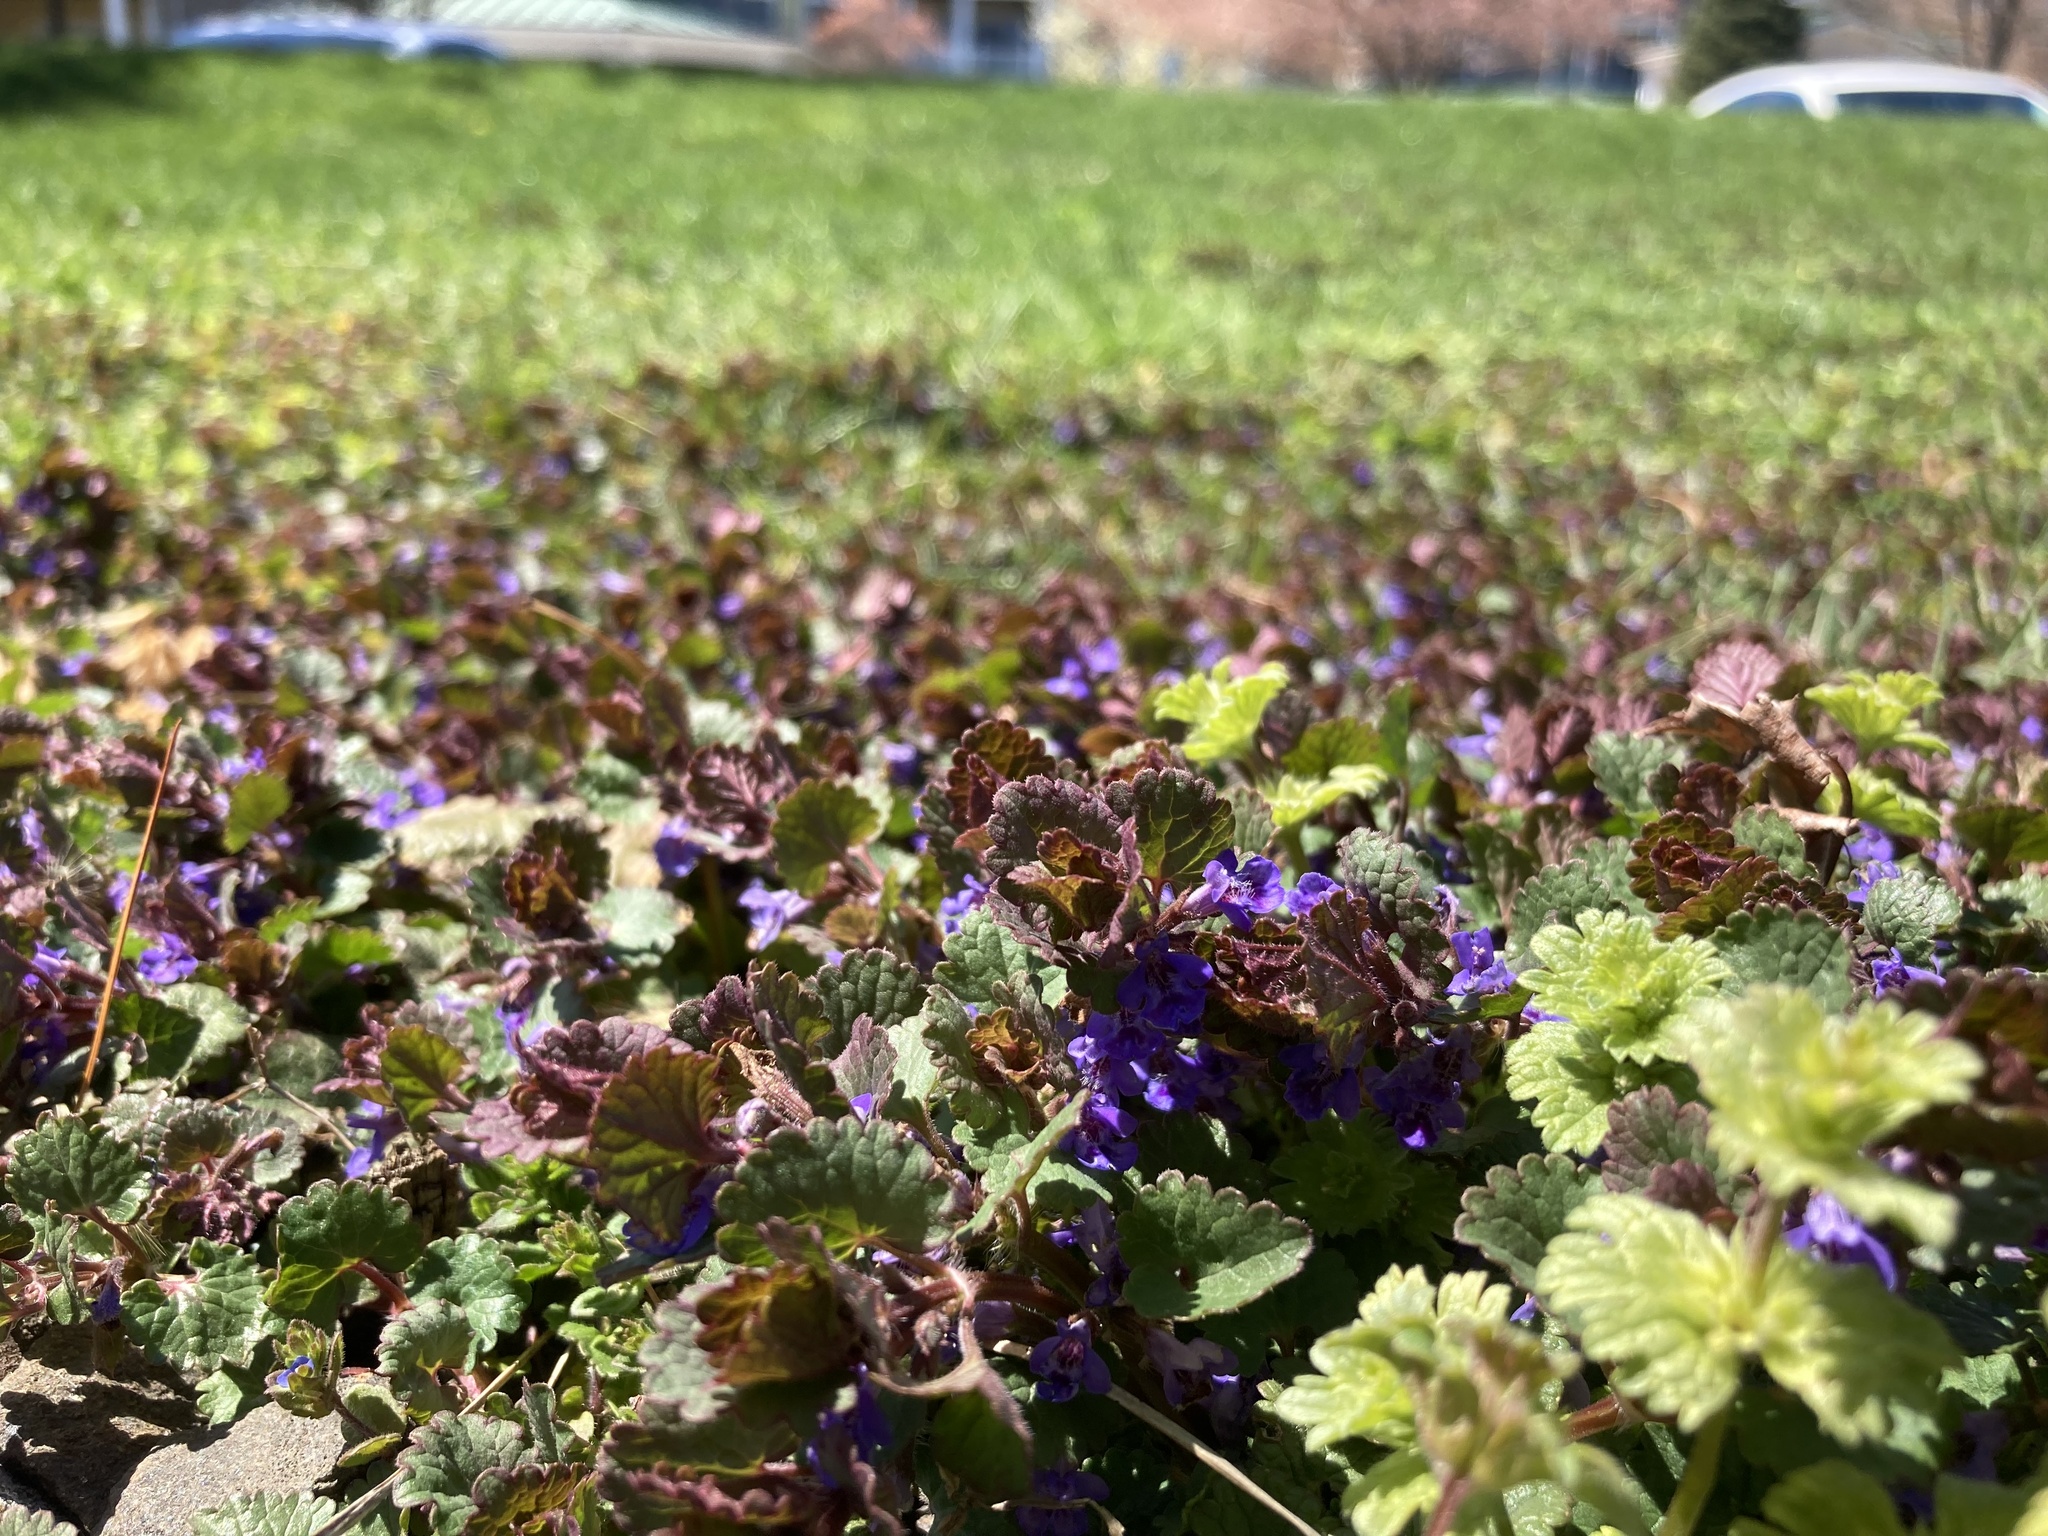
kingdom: Plantae
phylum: Tracheophyta
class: Magnoliopsida
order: Lamiales
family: Lamiaceae
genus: Glechoma
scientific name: Glechoma hederacea
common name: Ground ivy
